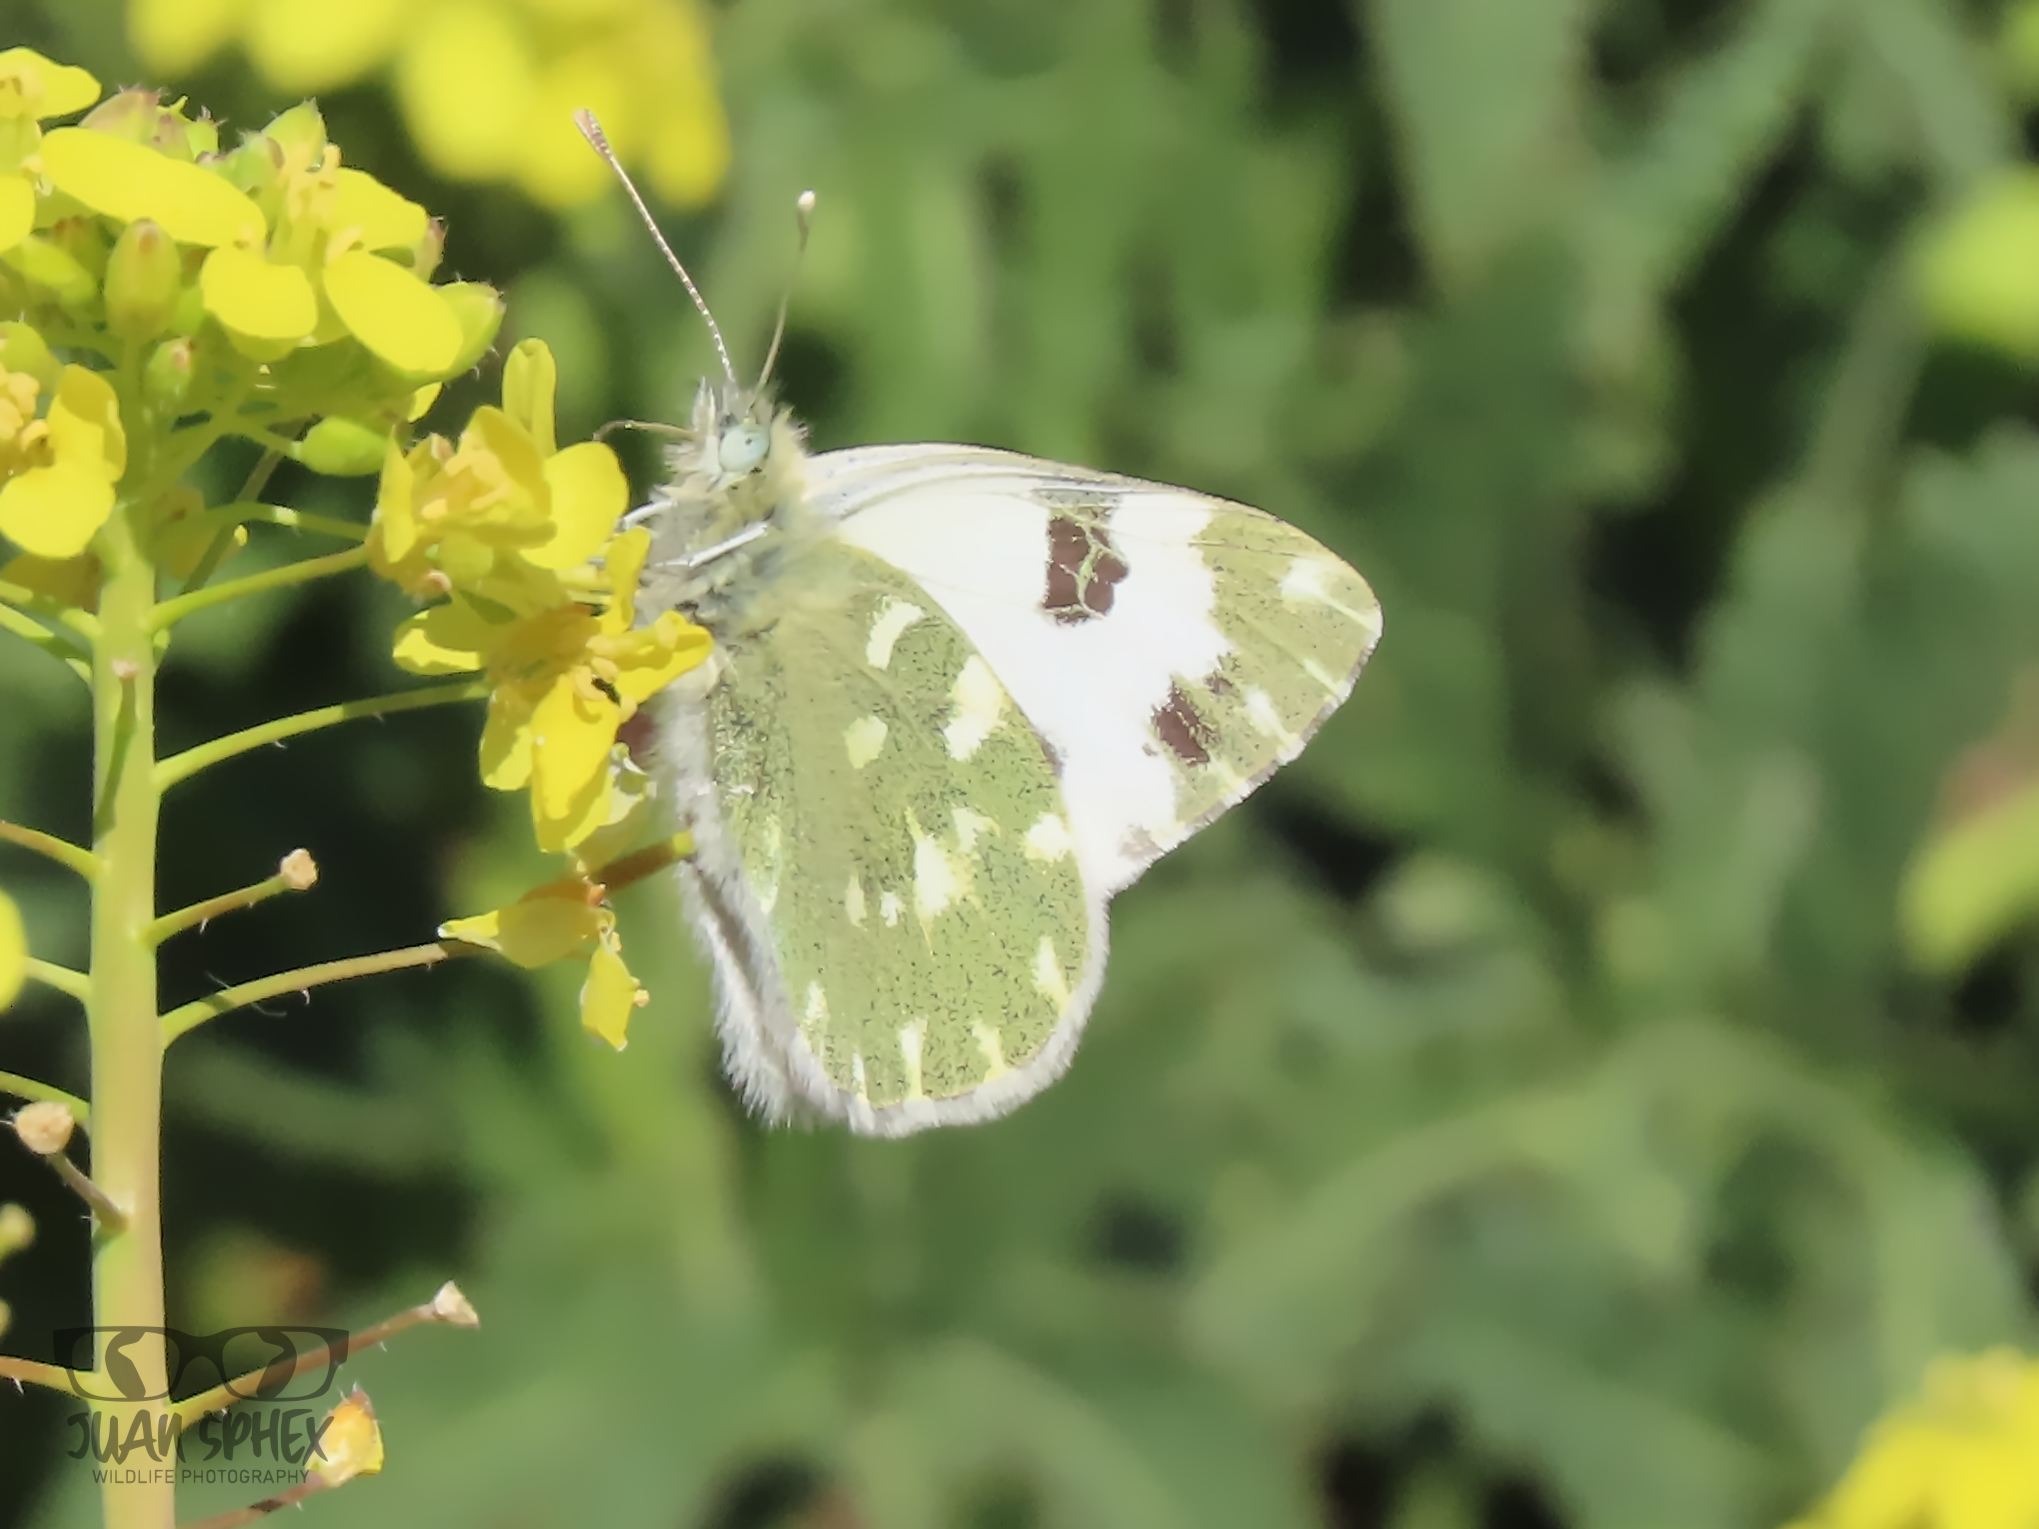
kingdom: Animalia
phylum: Arthropoda
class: Insecta
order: Lepidoptera
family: Pieridae
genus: Pontia
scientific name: Pontia daplidice
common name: Bath white
